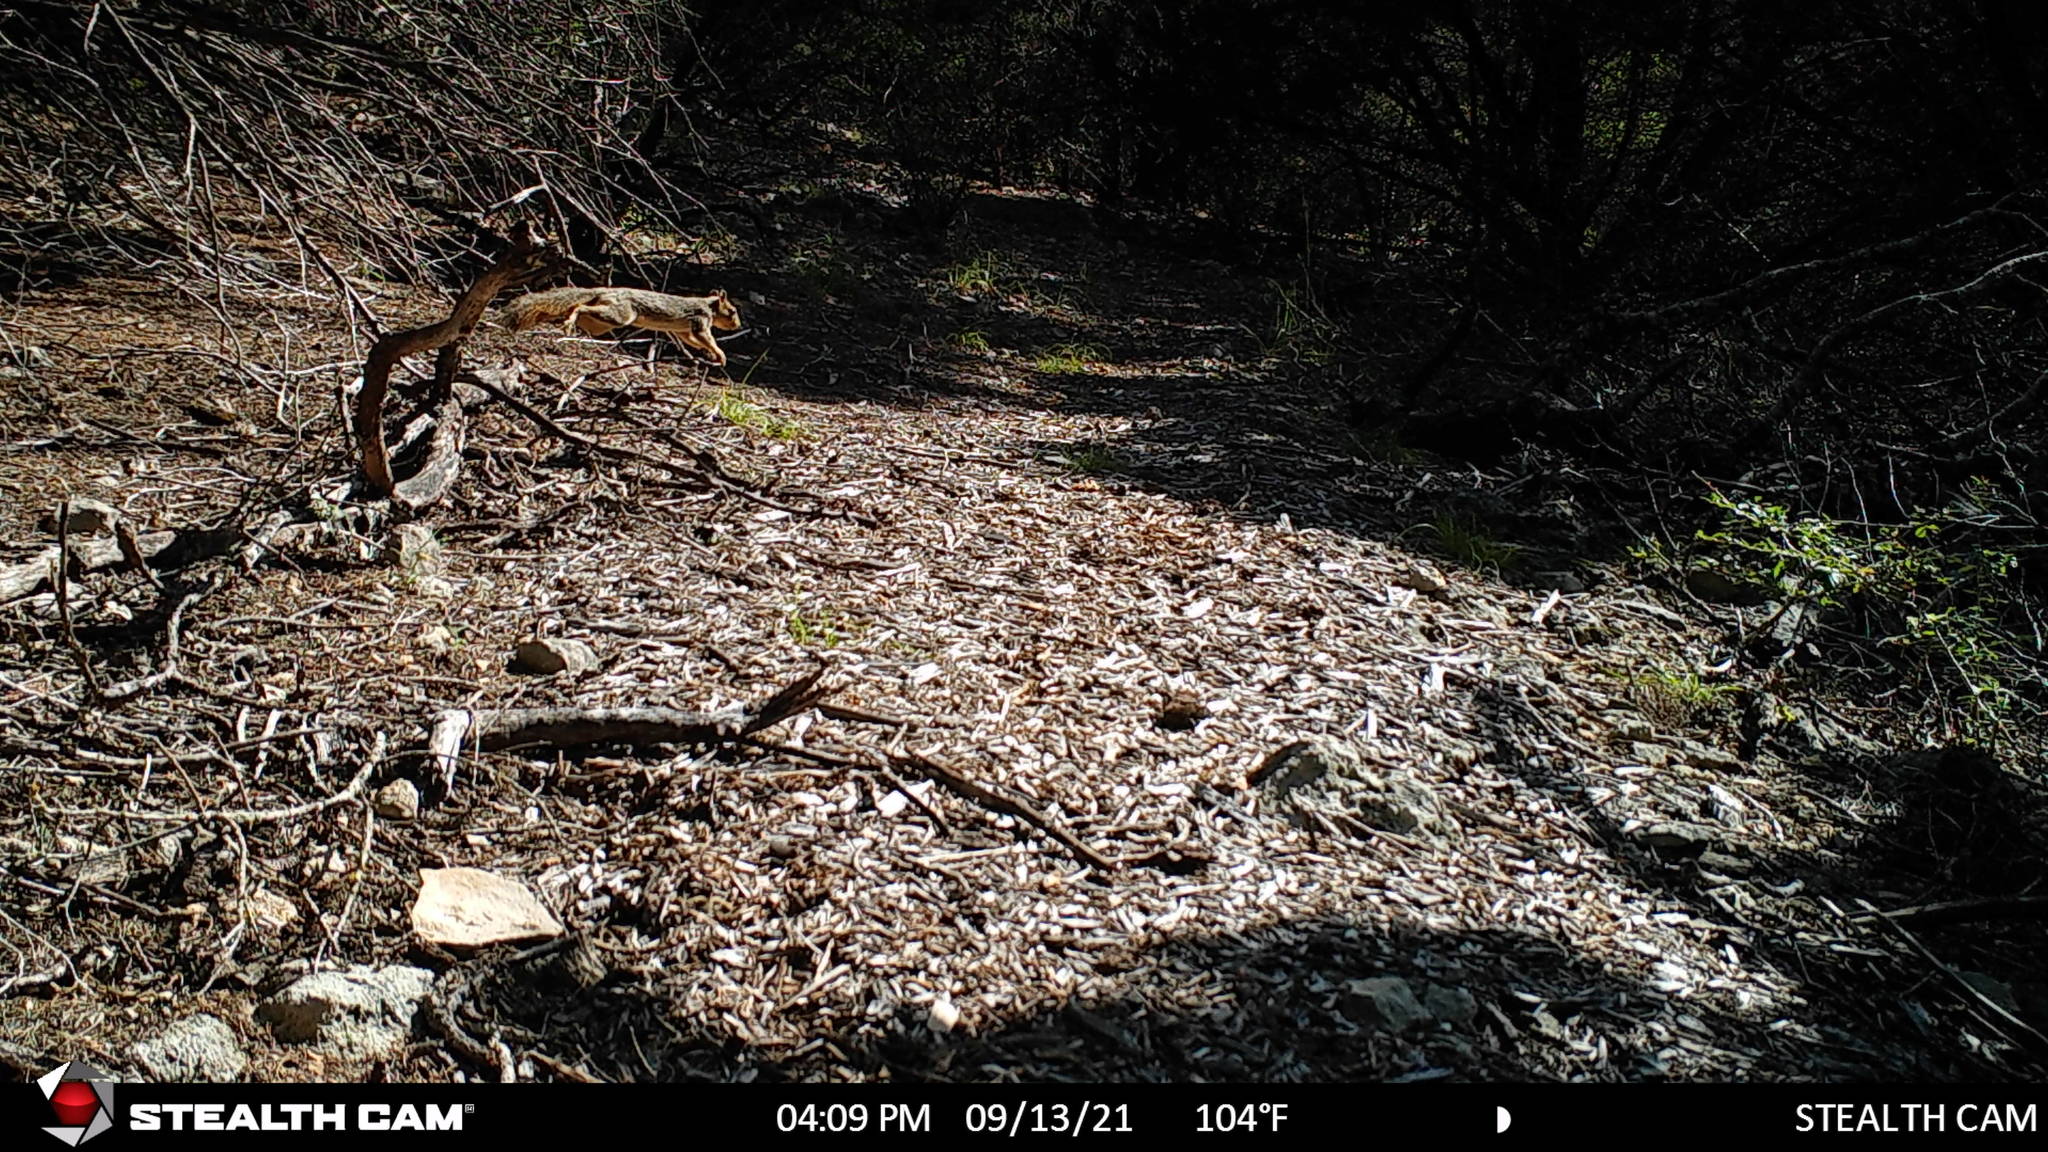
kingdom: Animalia
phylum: Chordata
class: Mammalia
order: Rodentia
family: Sciuridae
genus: Sciurus
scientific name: Sciurus niger
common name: Fox squirrel
